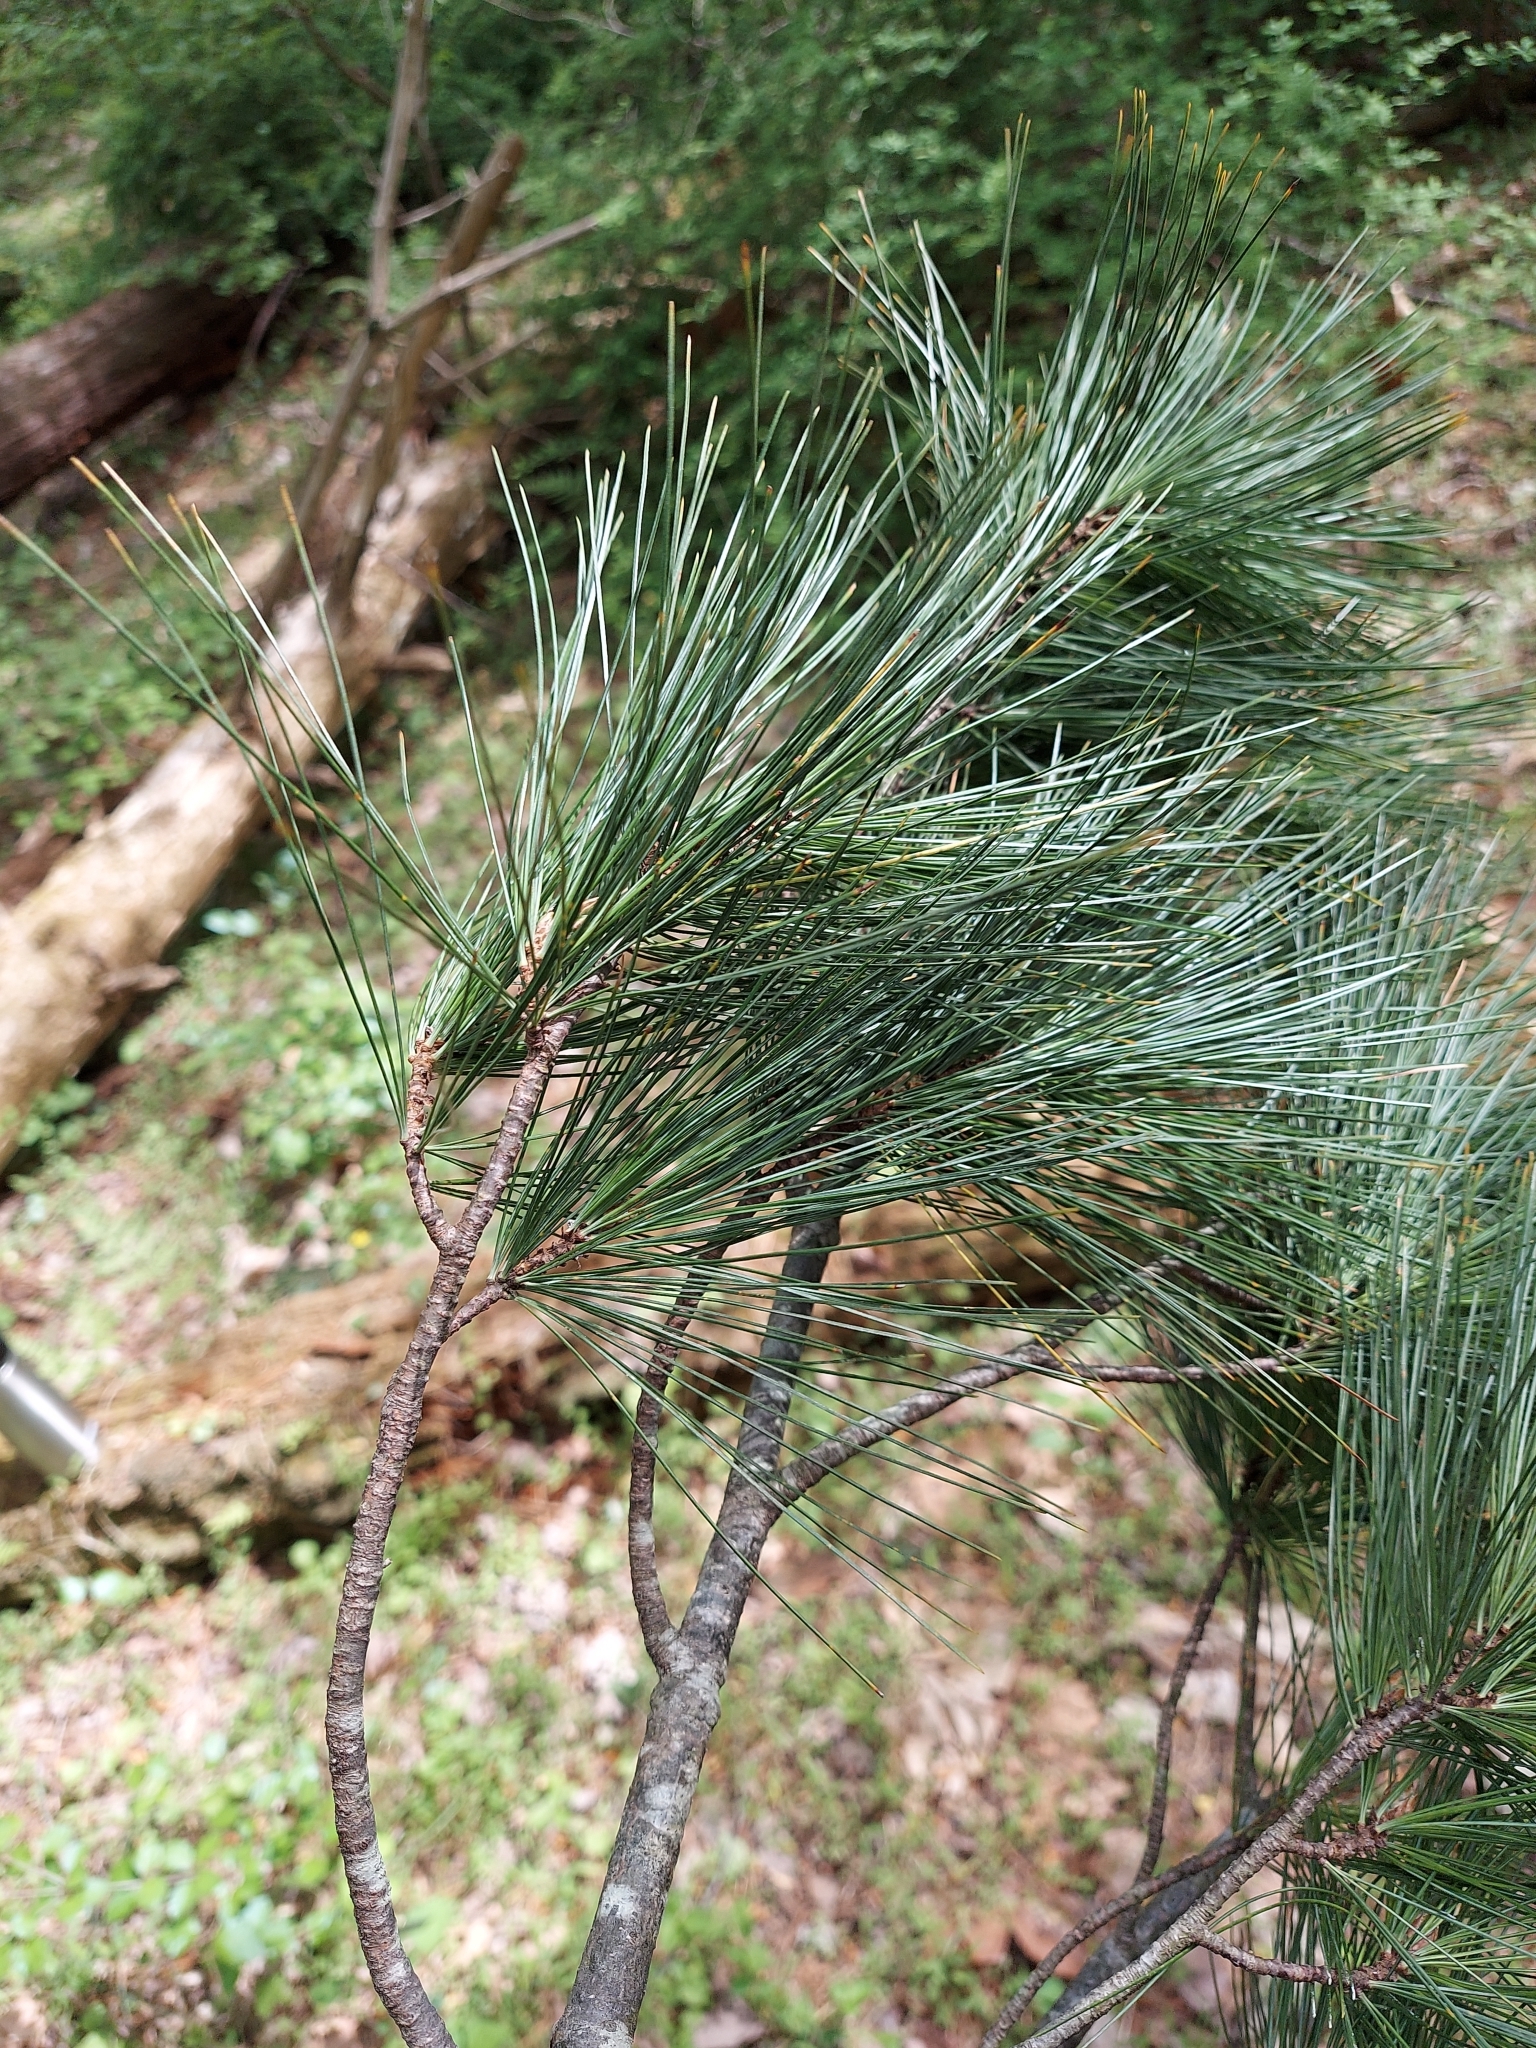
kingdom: Plantae
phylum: Tracheophyta
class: Pinopsida
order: Pinales
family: Pinaceae
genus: Pinus
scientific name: Pinus strobus
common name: Weymouth pine
